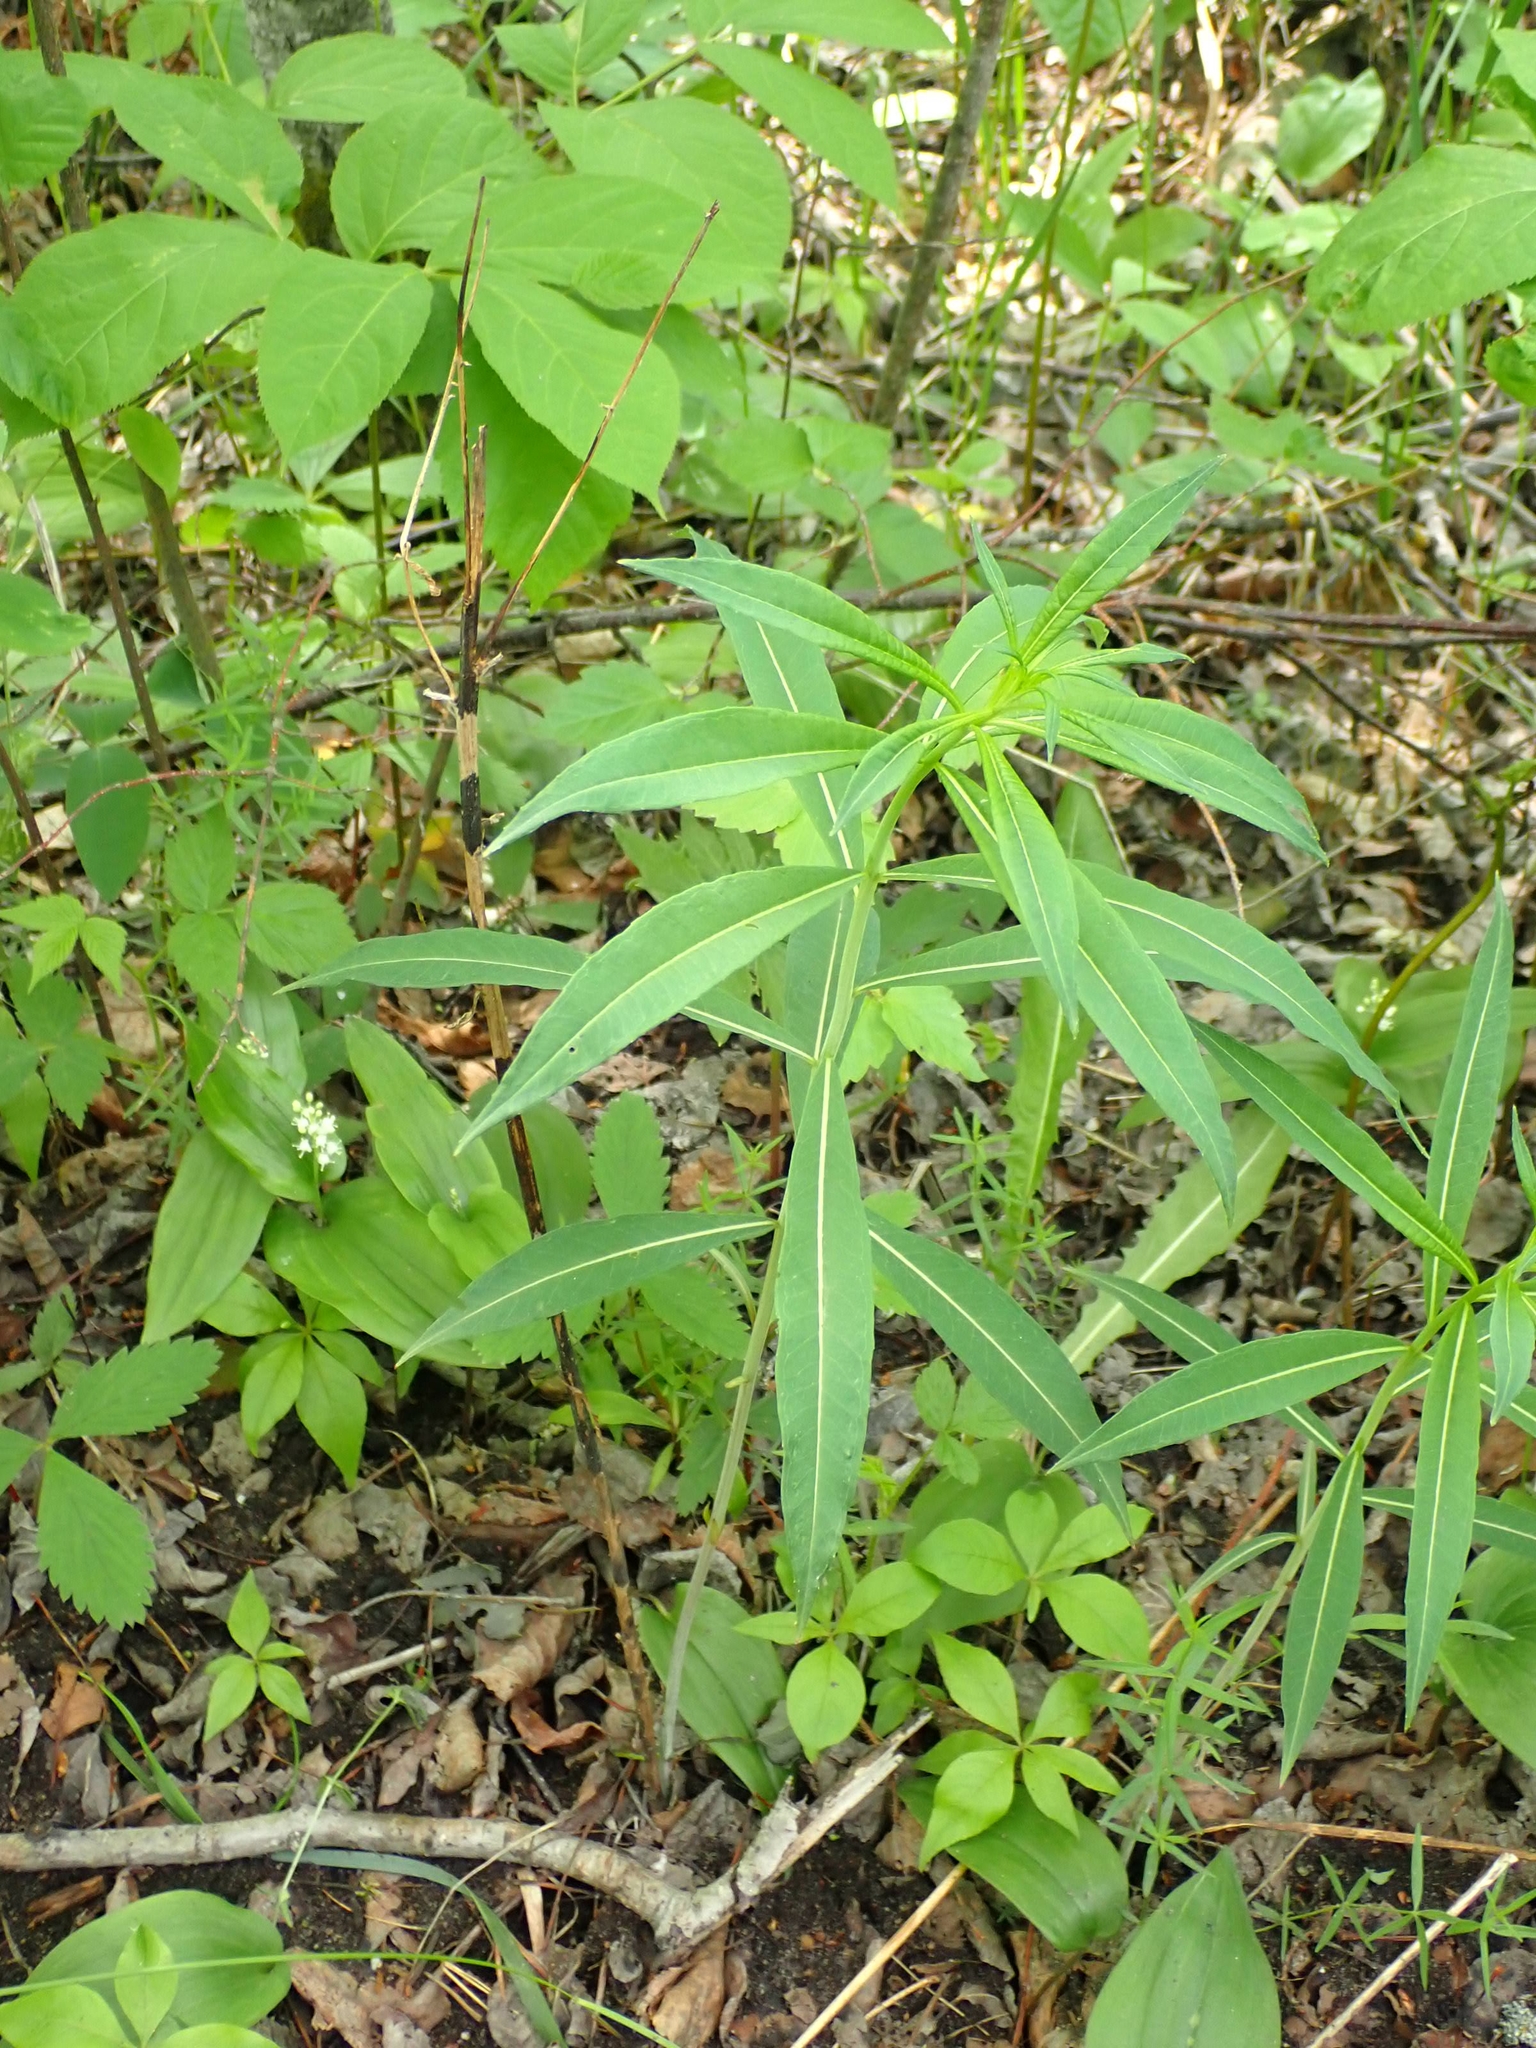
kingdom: Plantae
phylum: Tracheophyta
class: Magnoliopsida
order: Myrtales
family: Onagraceae
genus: Chamaenerion
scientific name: Chamaenerion angustifolium
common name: Fireweed
